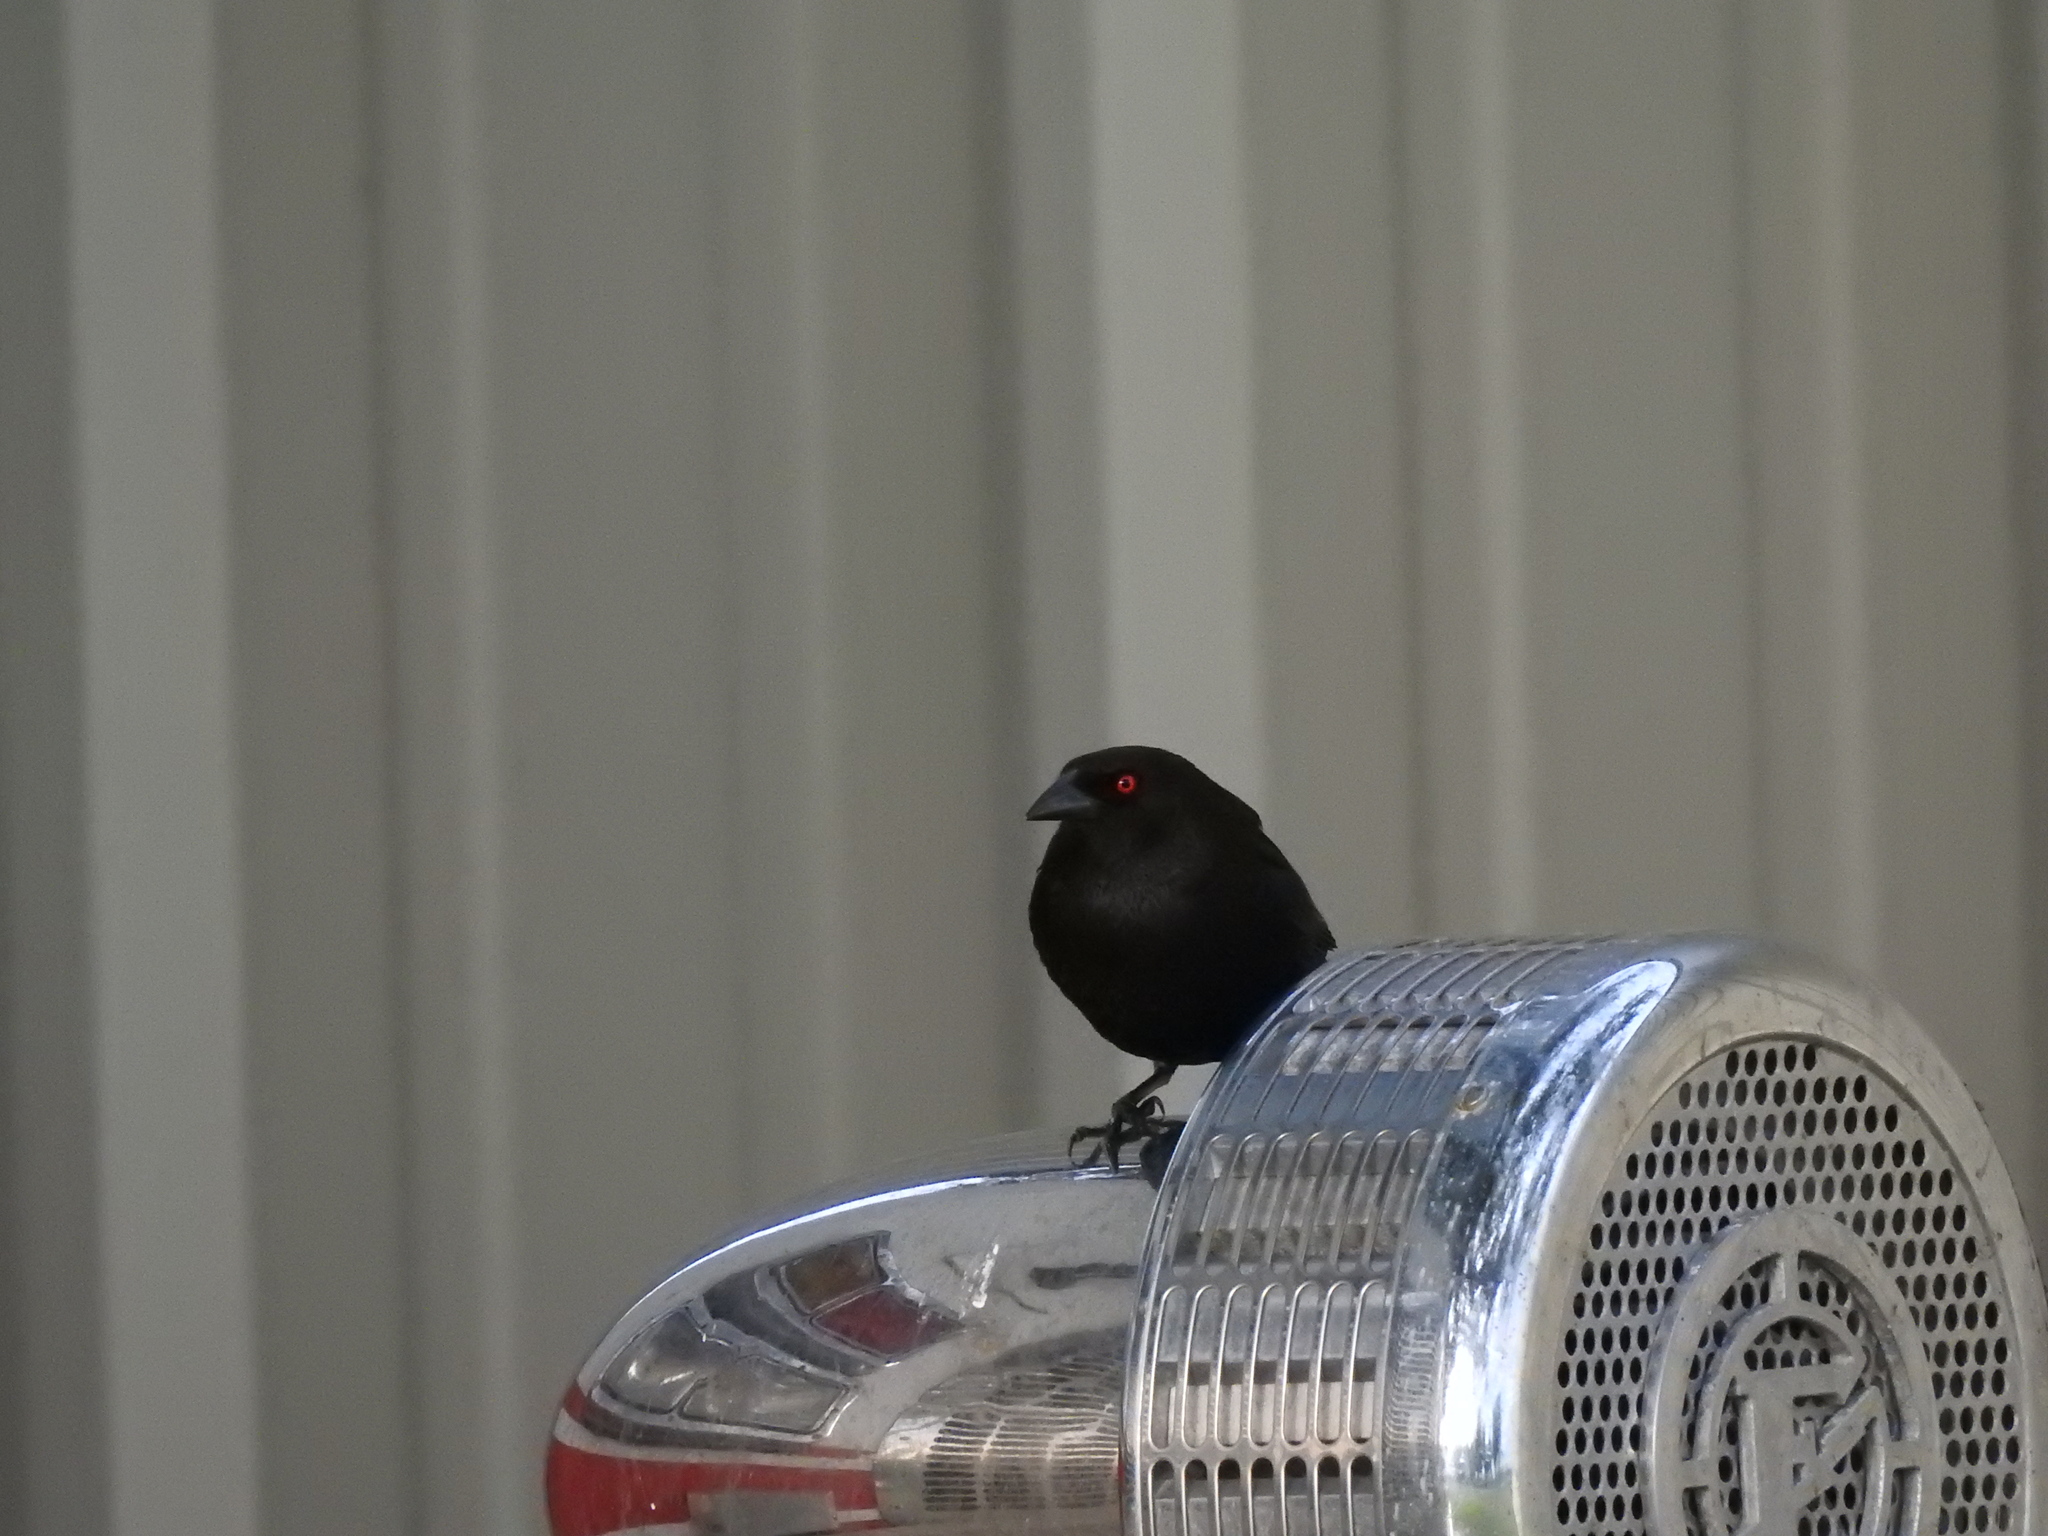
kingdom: Animalia
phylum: Chordata
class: Aves
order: Passeriformes
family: Icteridae
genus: Molothrus
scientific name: Molothrus aeneus
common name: Bronzed cowbird
